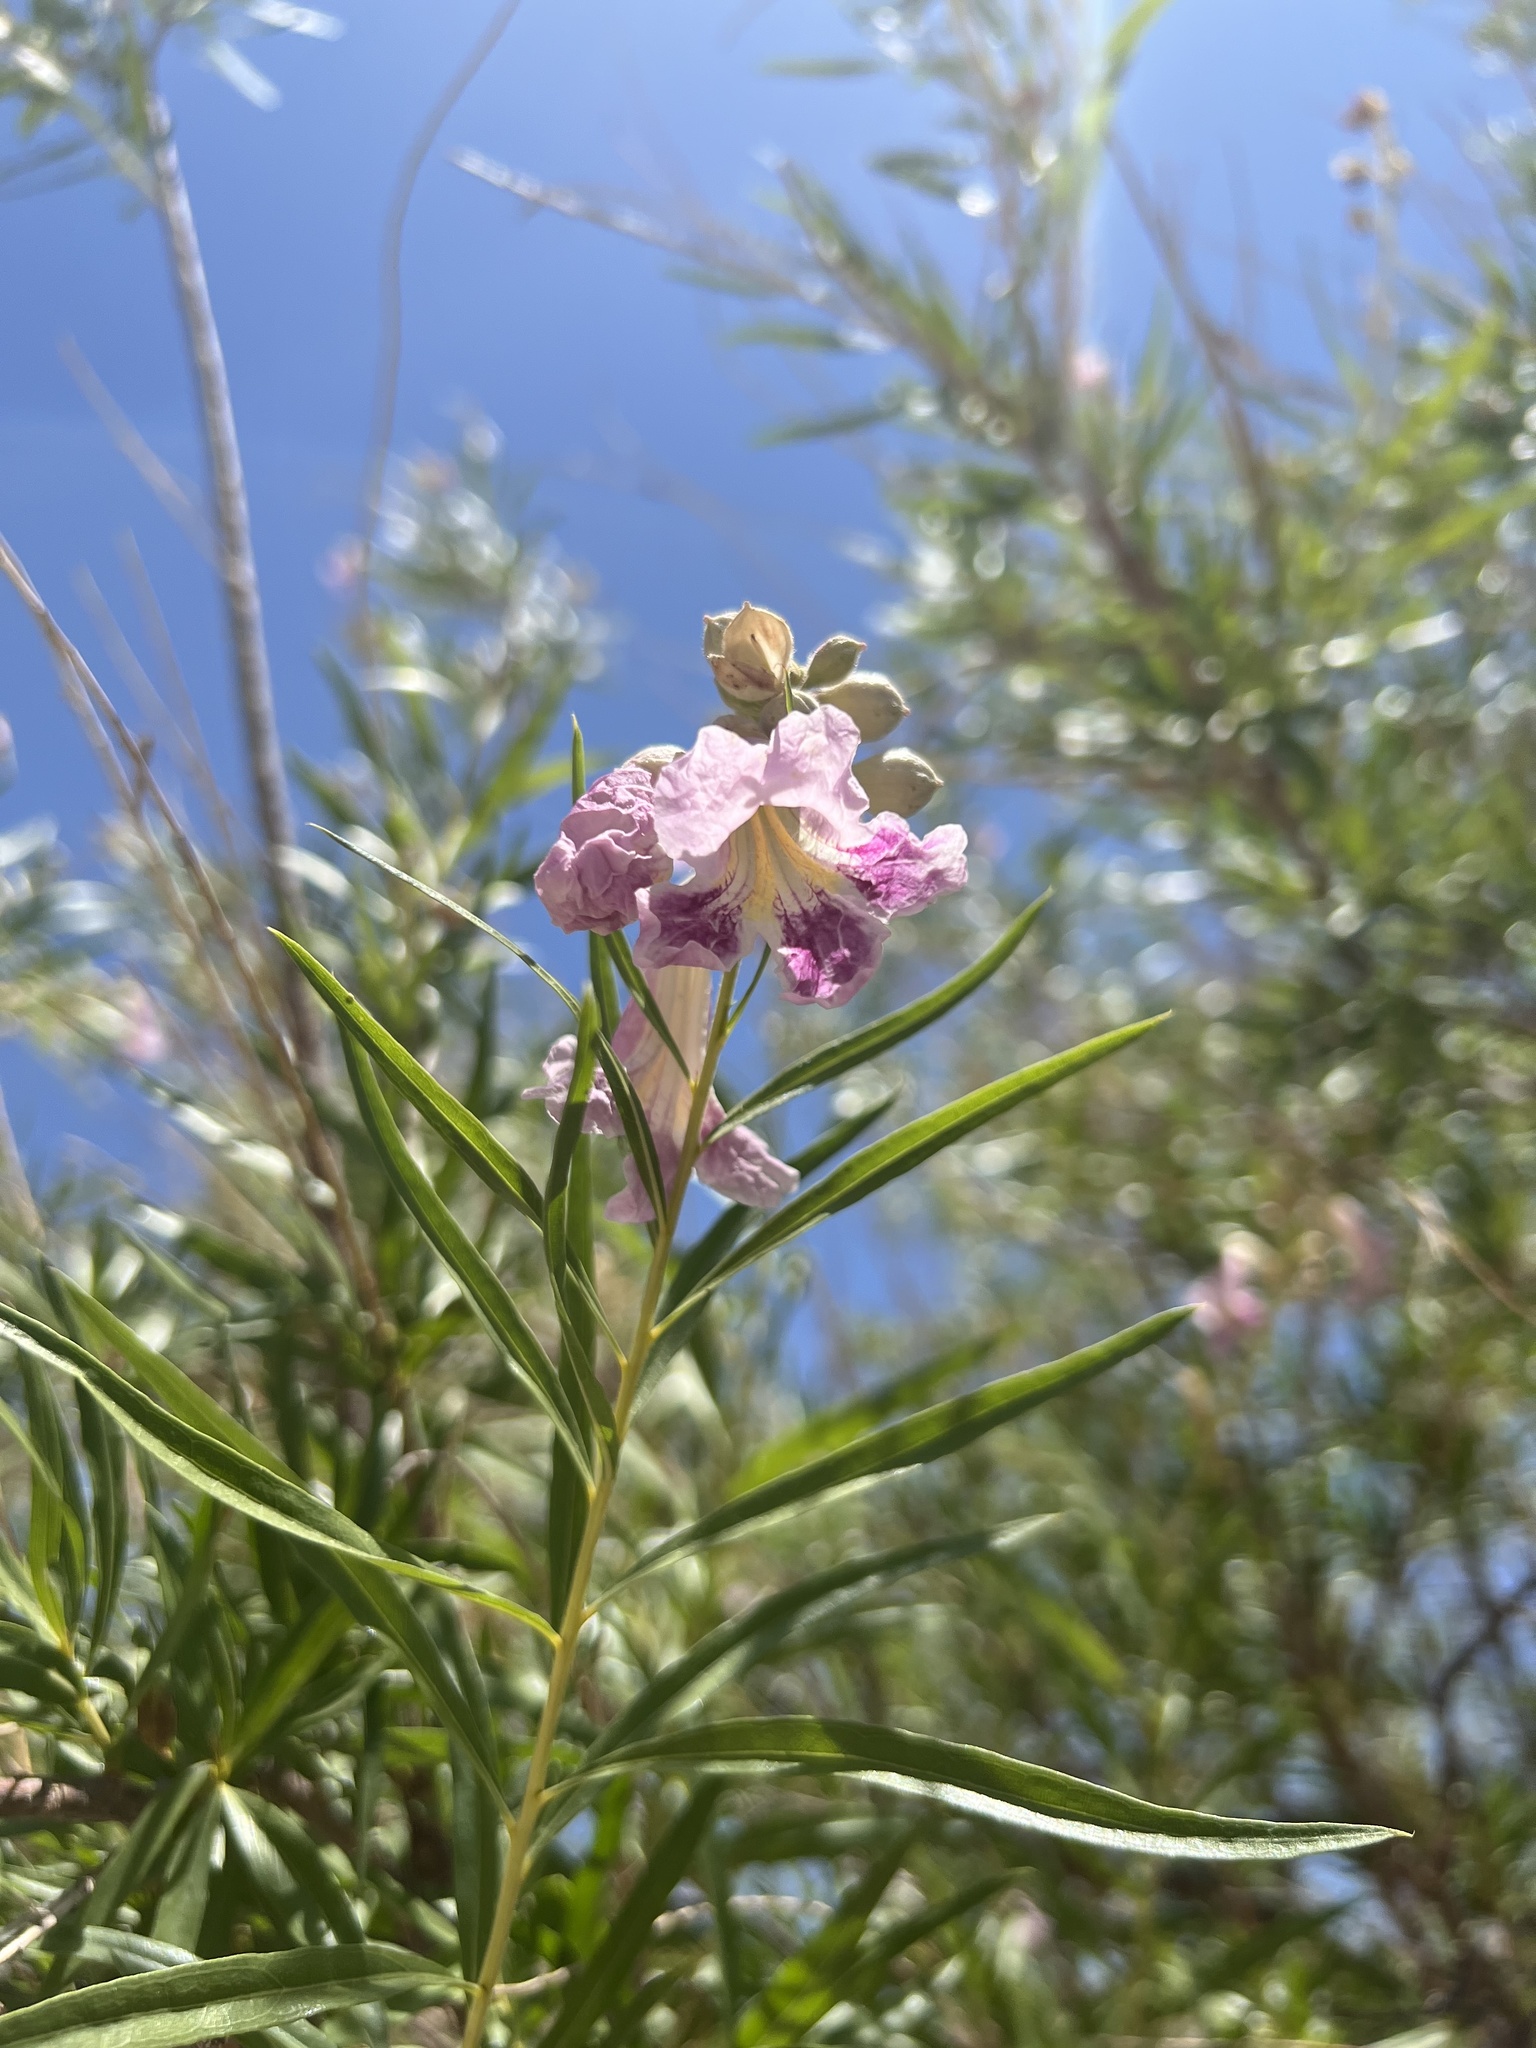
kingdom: Plantae
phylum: Tracheophyta
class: Magnoliopsida
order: Lamiales
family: Bignoniaceae
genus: Chilopsis
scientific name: Chilopsis linearis
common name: Desert-willow
